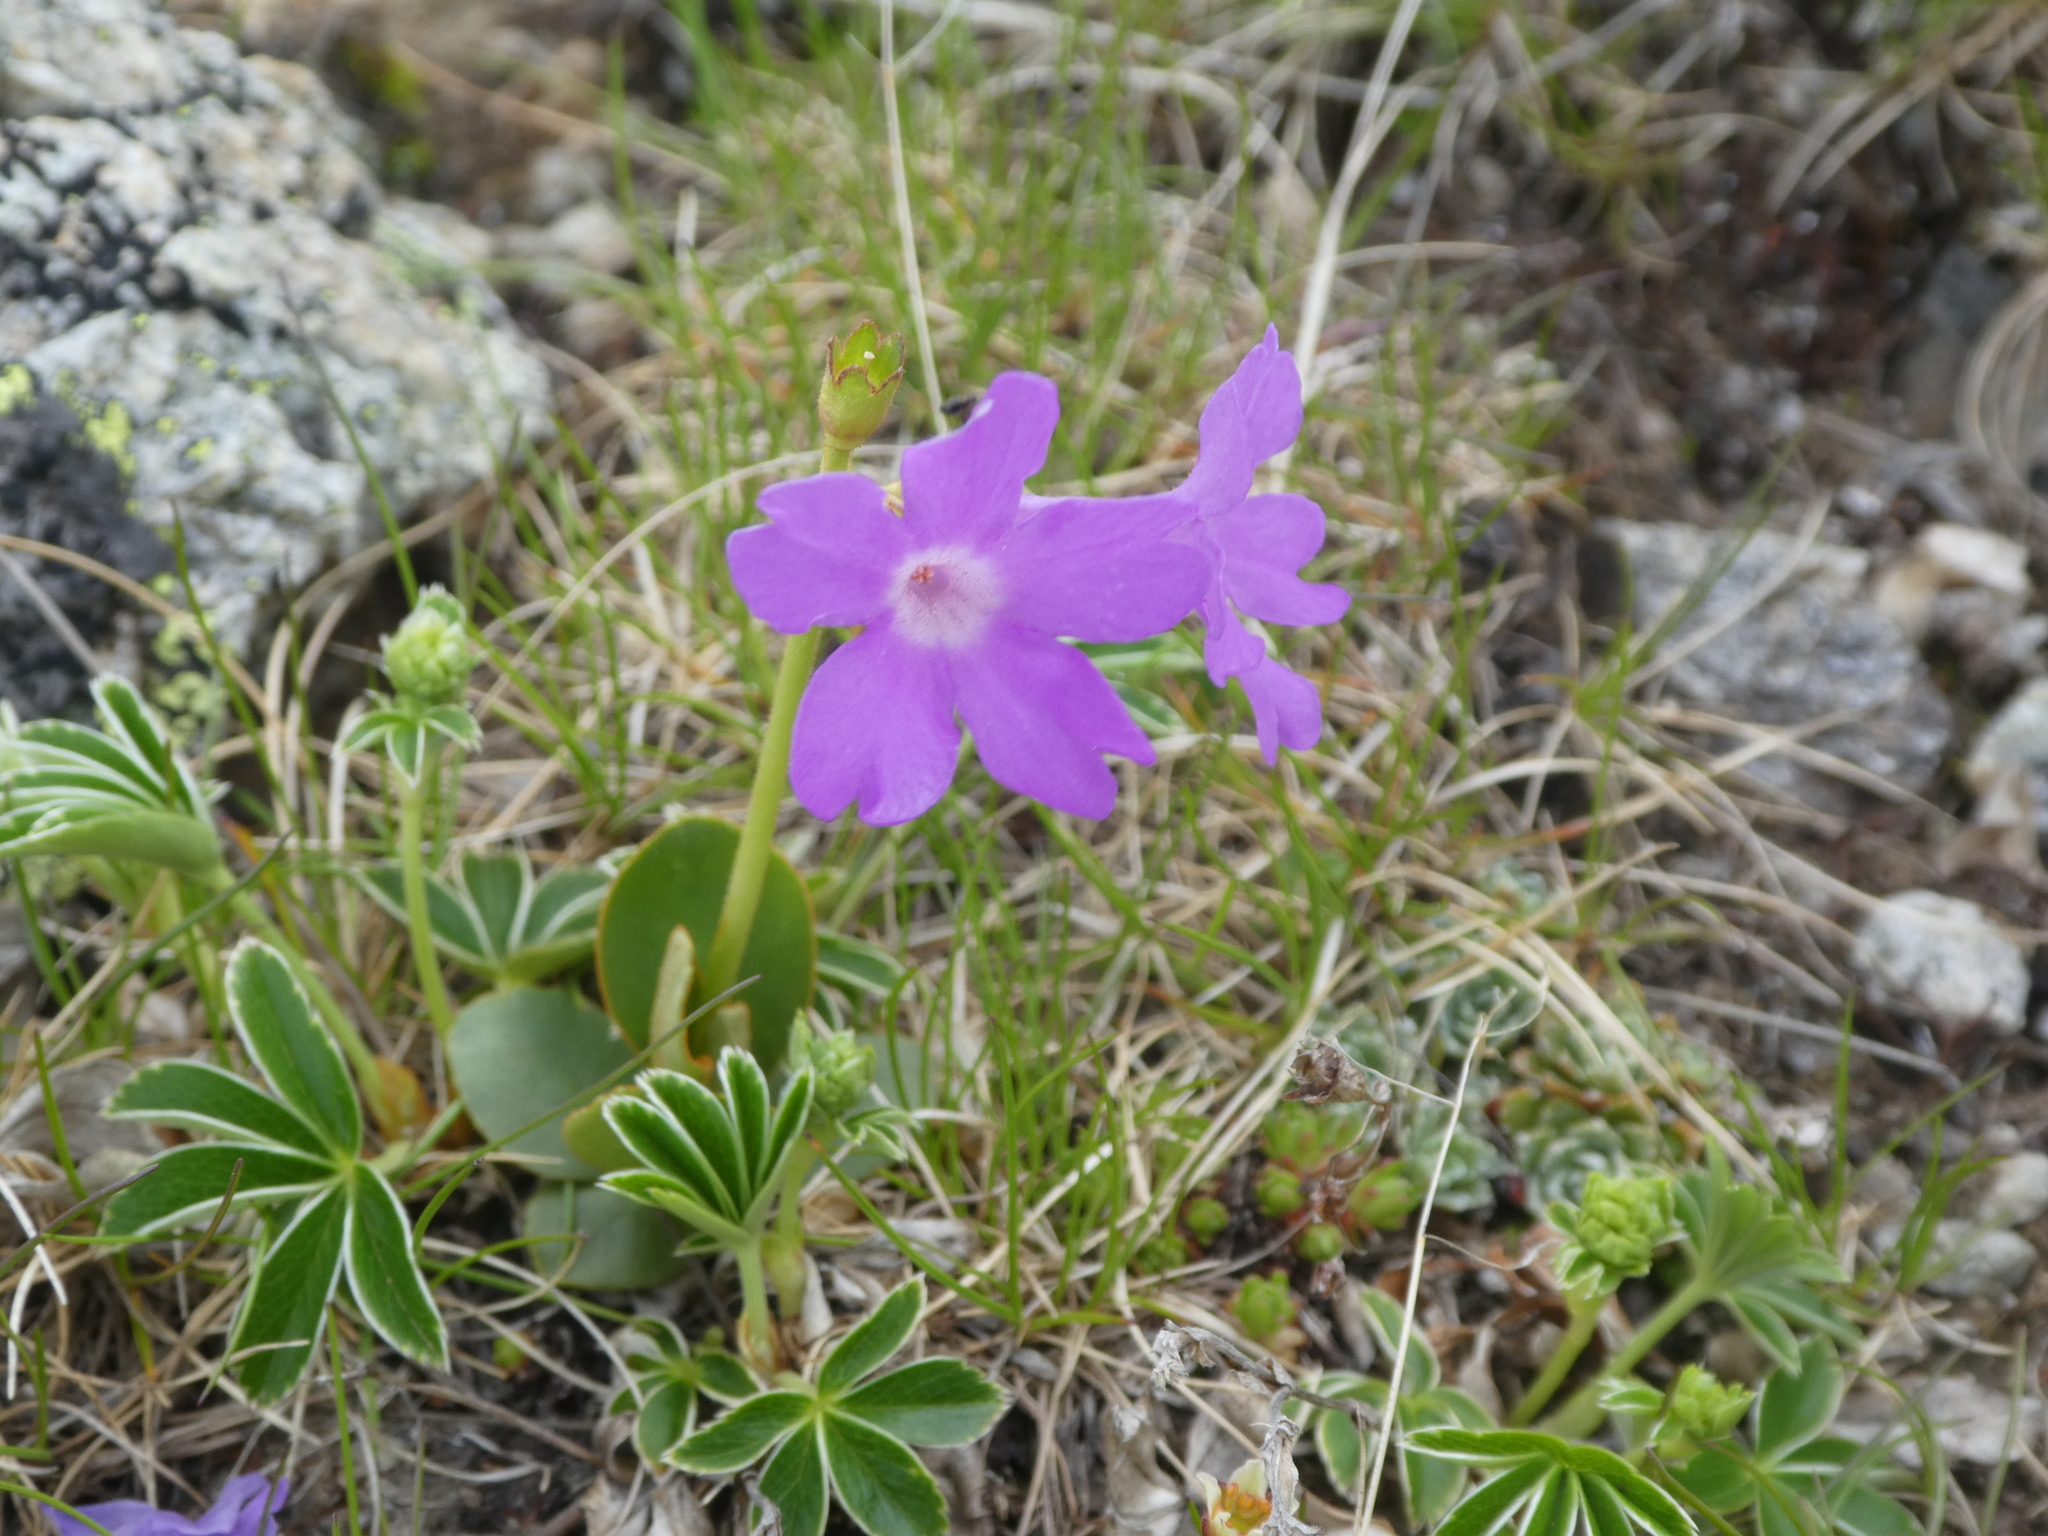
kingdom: Plantae
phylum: Tracheophyta
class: Magnoliopsida
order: Ericales
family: Primulaceae
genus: Primula
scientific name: Primula pedemontana
